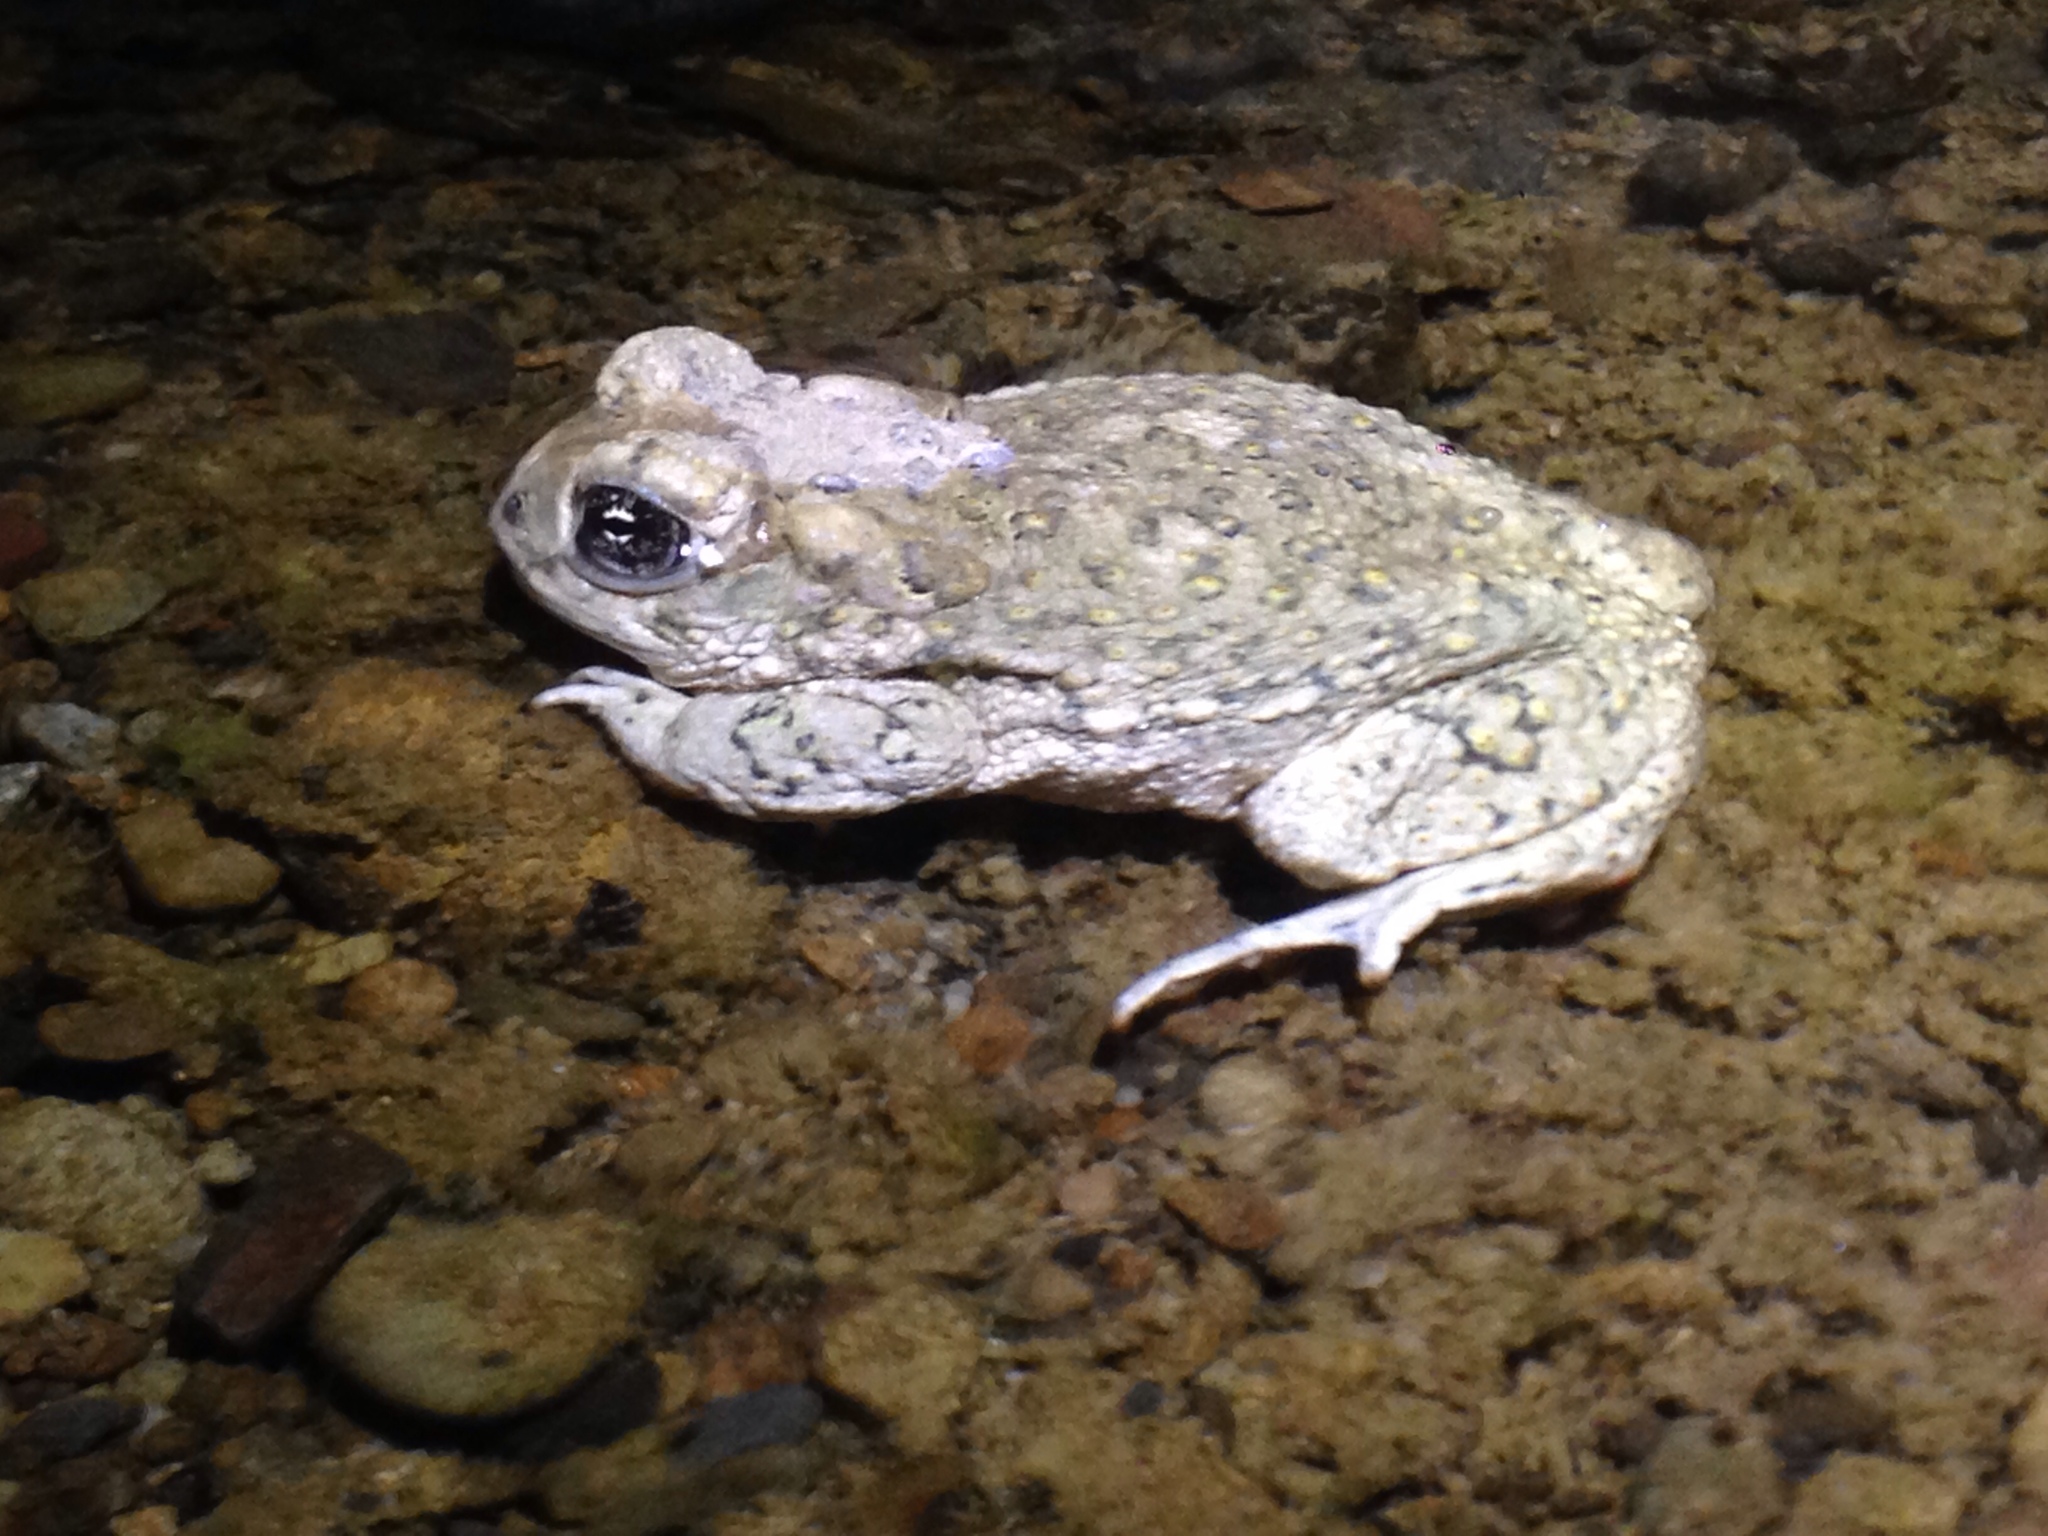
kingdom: Animalia
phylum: Chordata
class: Amphibia
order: Anura
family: Bufonidae
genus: Anaxyrus
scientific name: Anaxyrus californicus
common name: Arroyo toad
